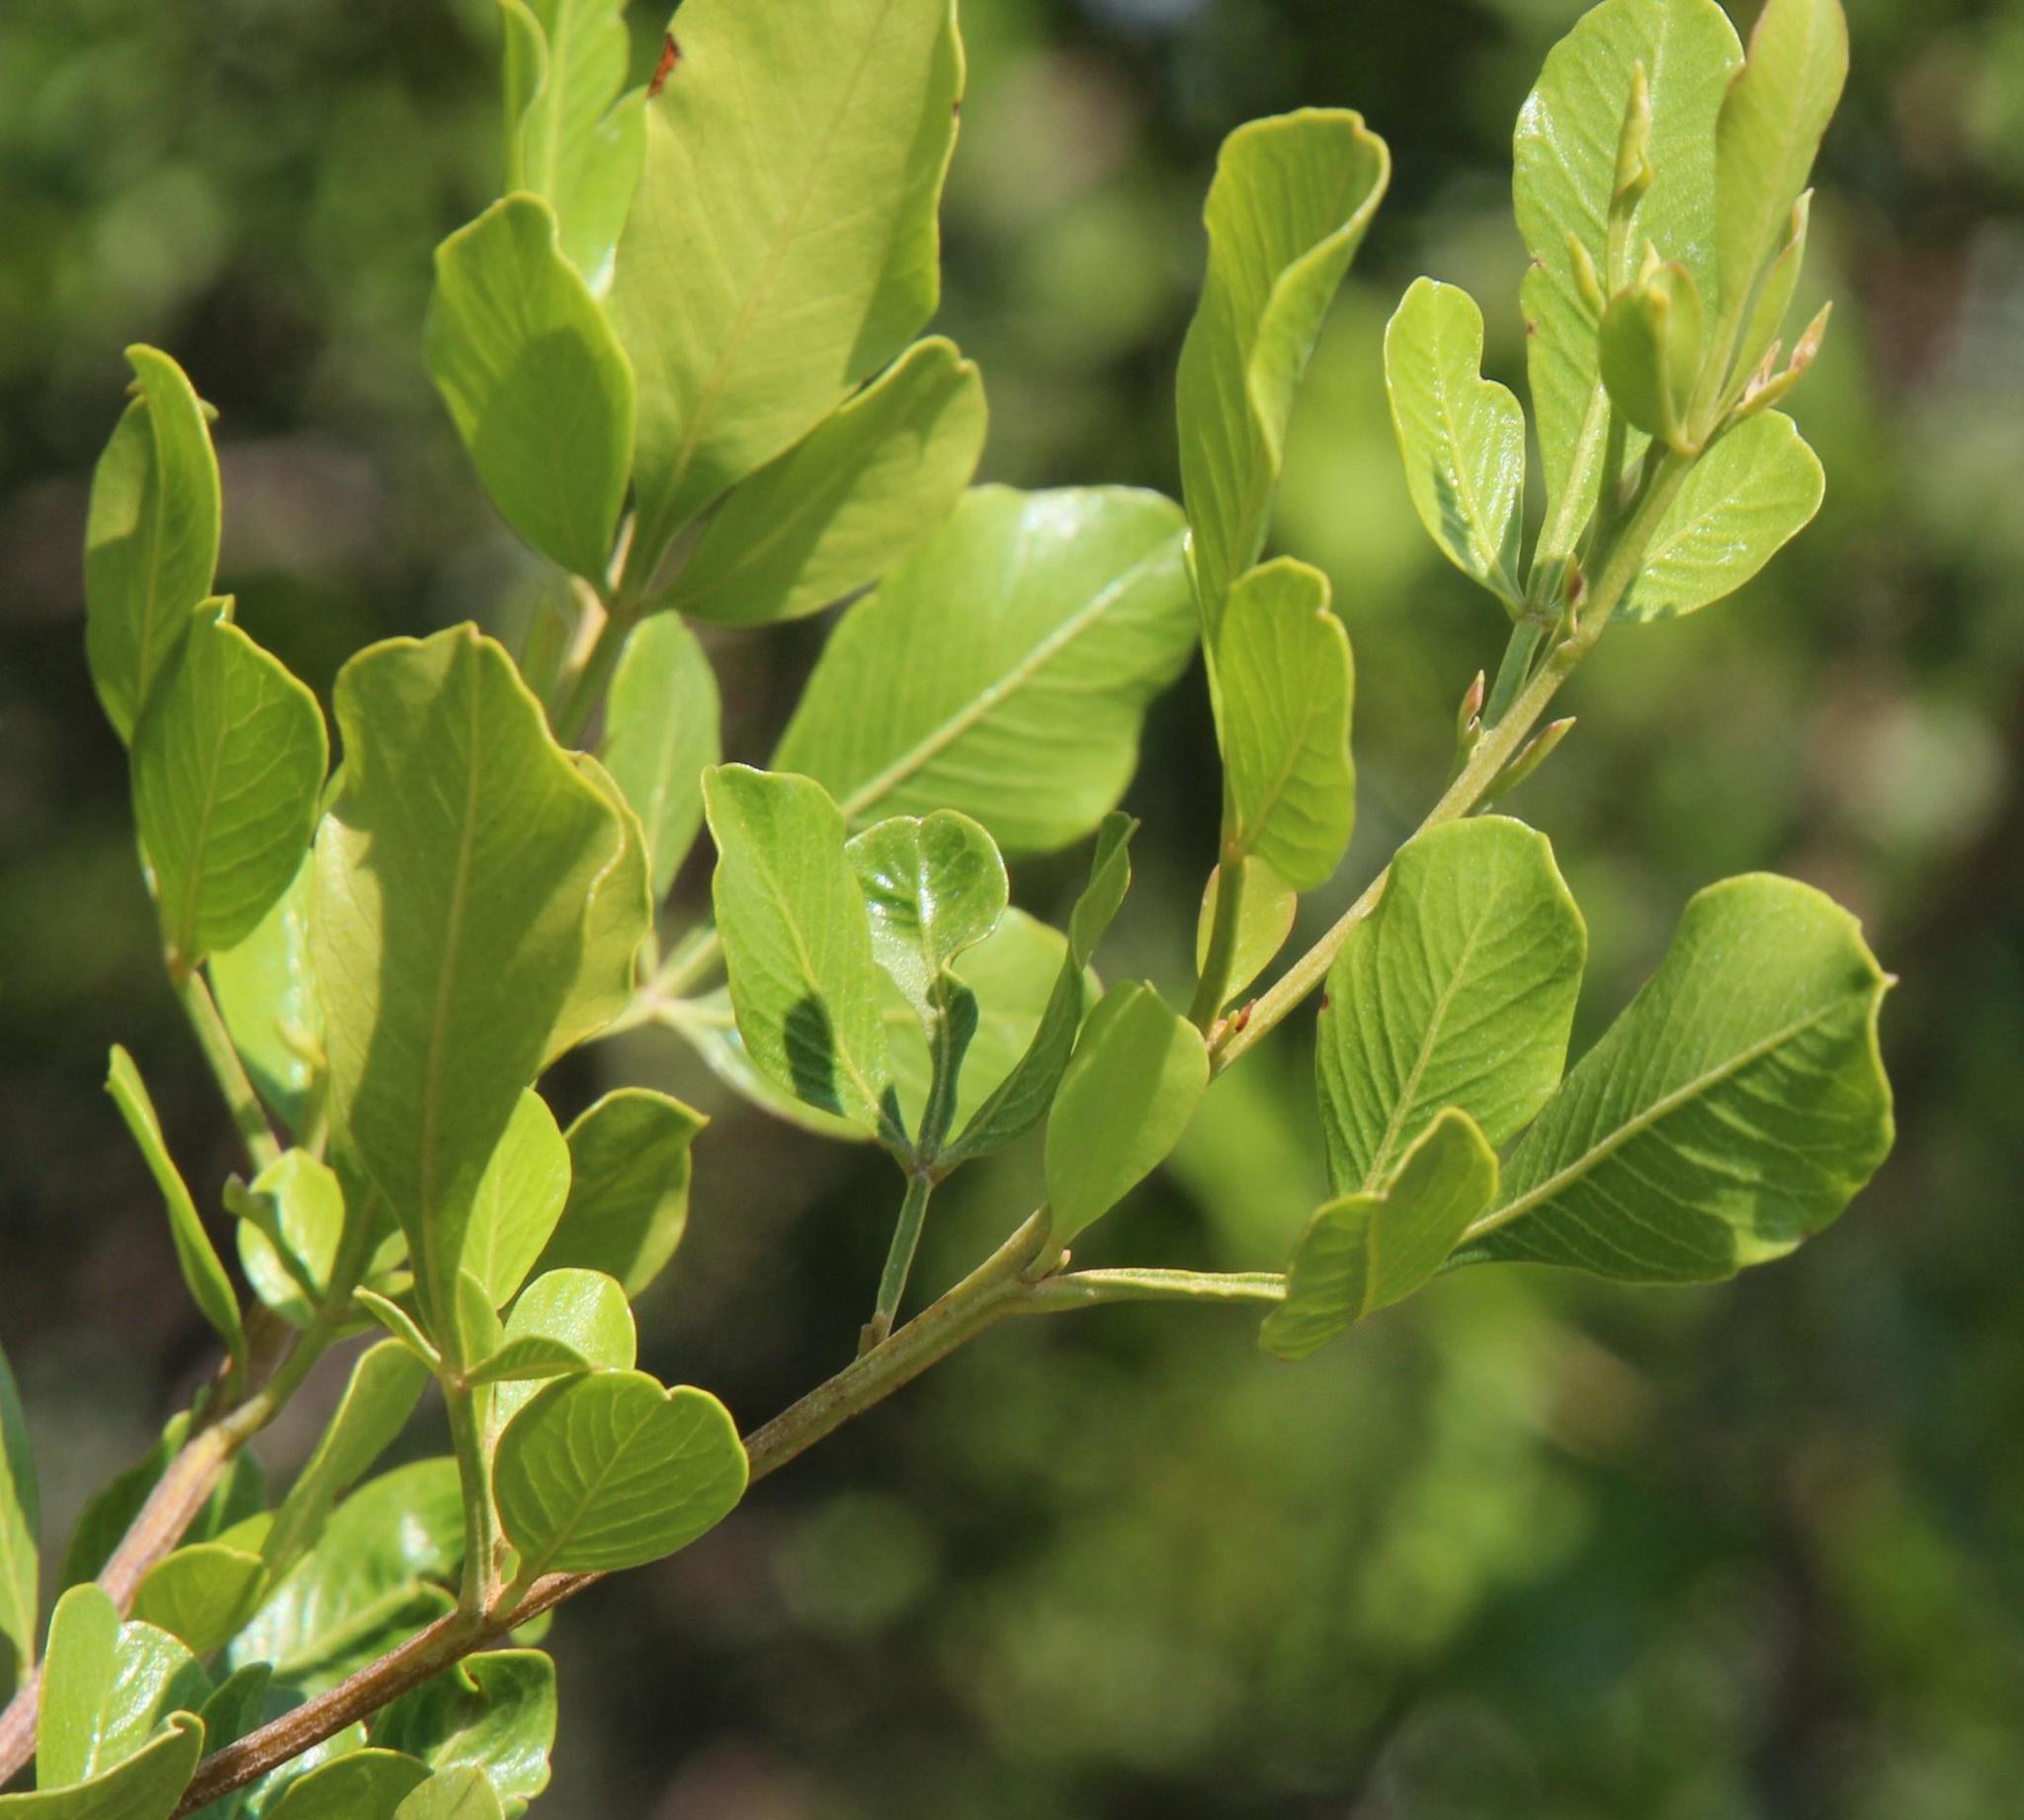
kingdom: Plantae
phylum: Tracheophyta
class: Magnoliopsida
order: Sapindales
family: Anacardiaceae
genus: Searsia
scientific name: Searsia pallens
